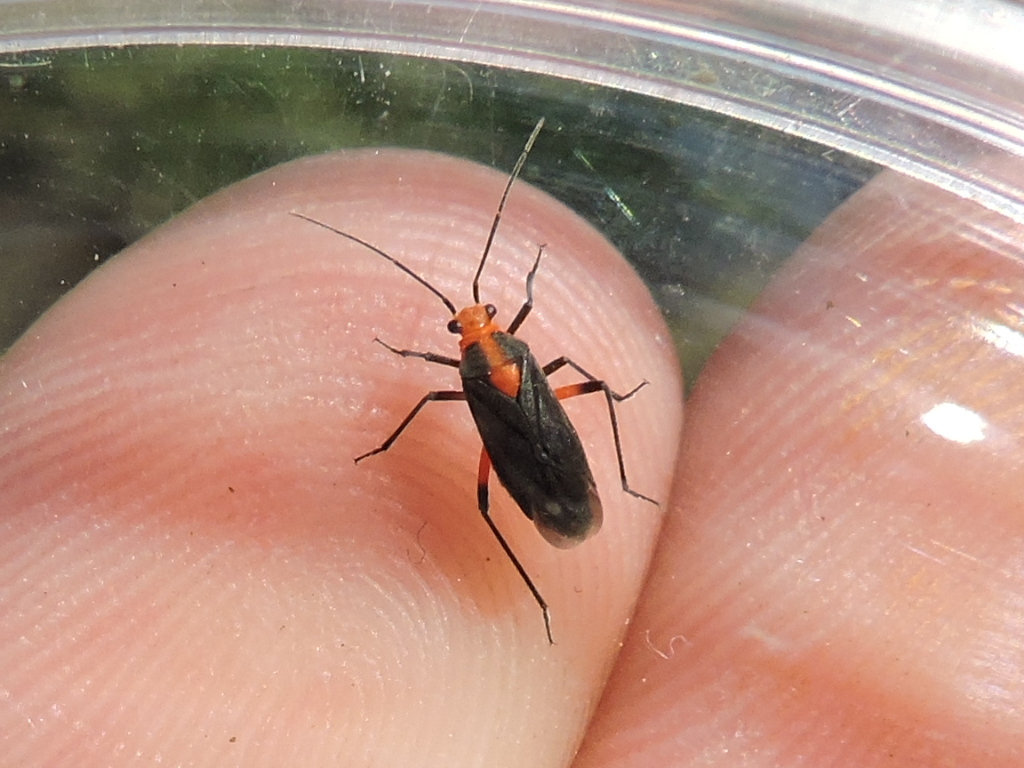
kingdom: Animalia
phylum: Arthropoda
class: Insecta
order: Hemiptera
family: Miridae
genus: Prepops
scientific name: Prepops rubrovittatus
